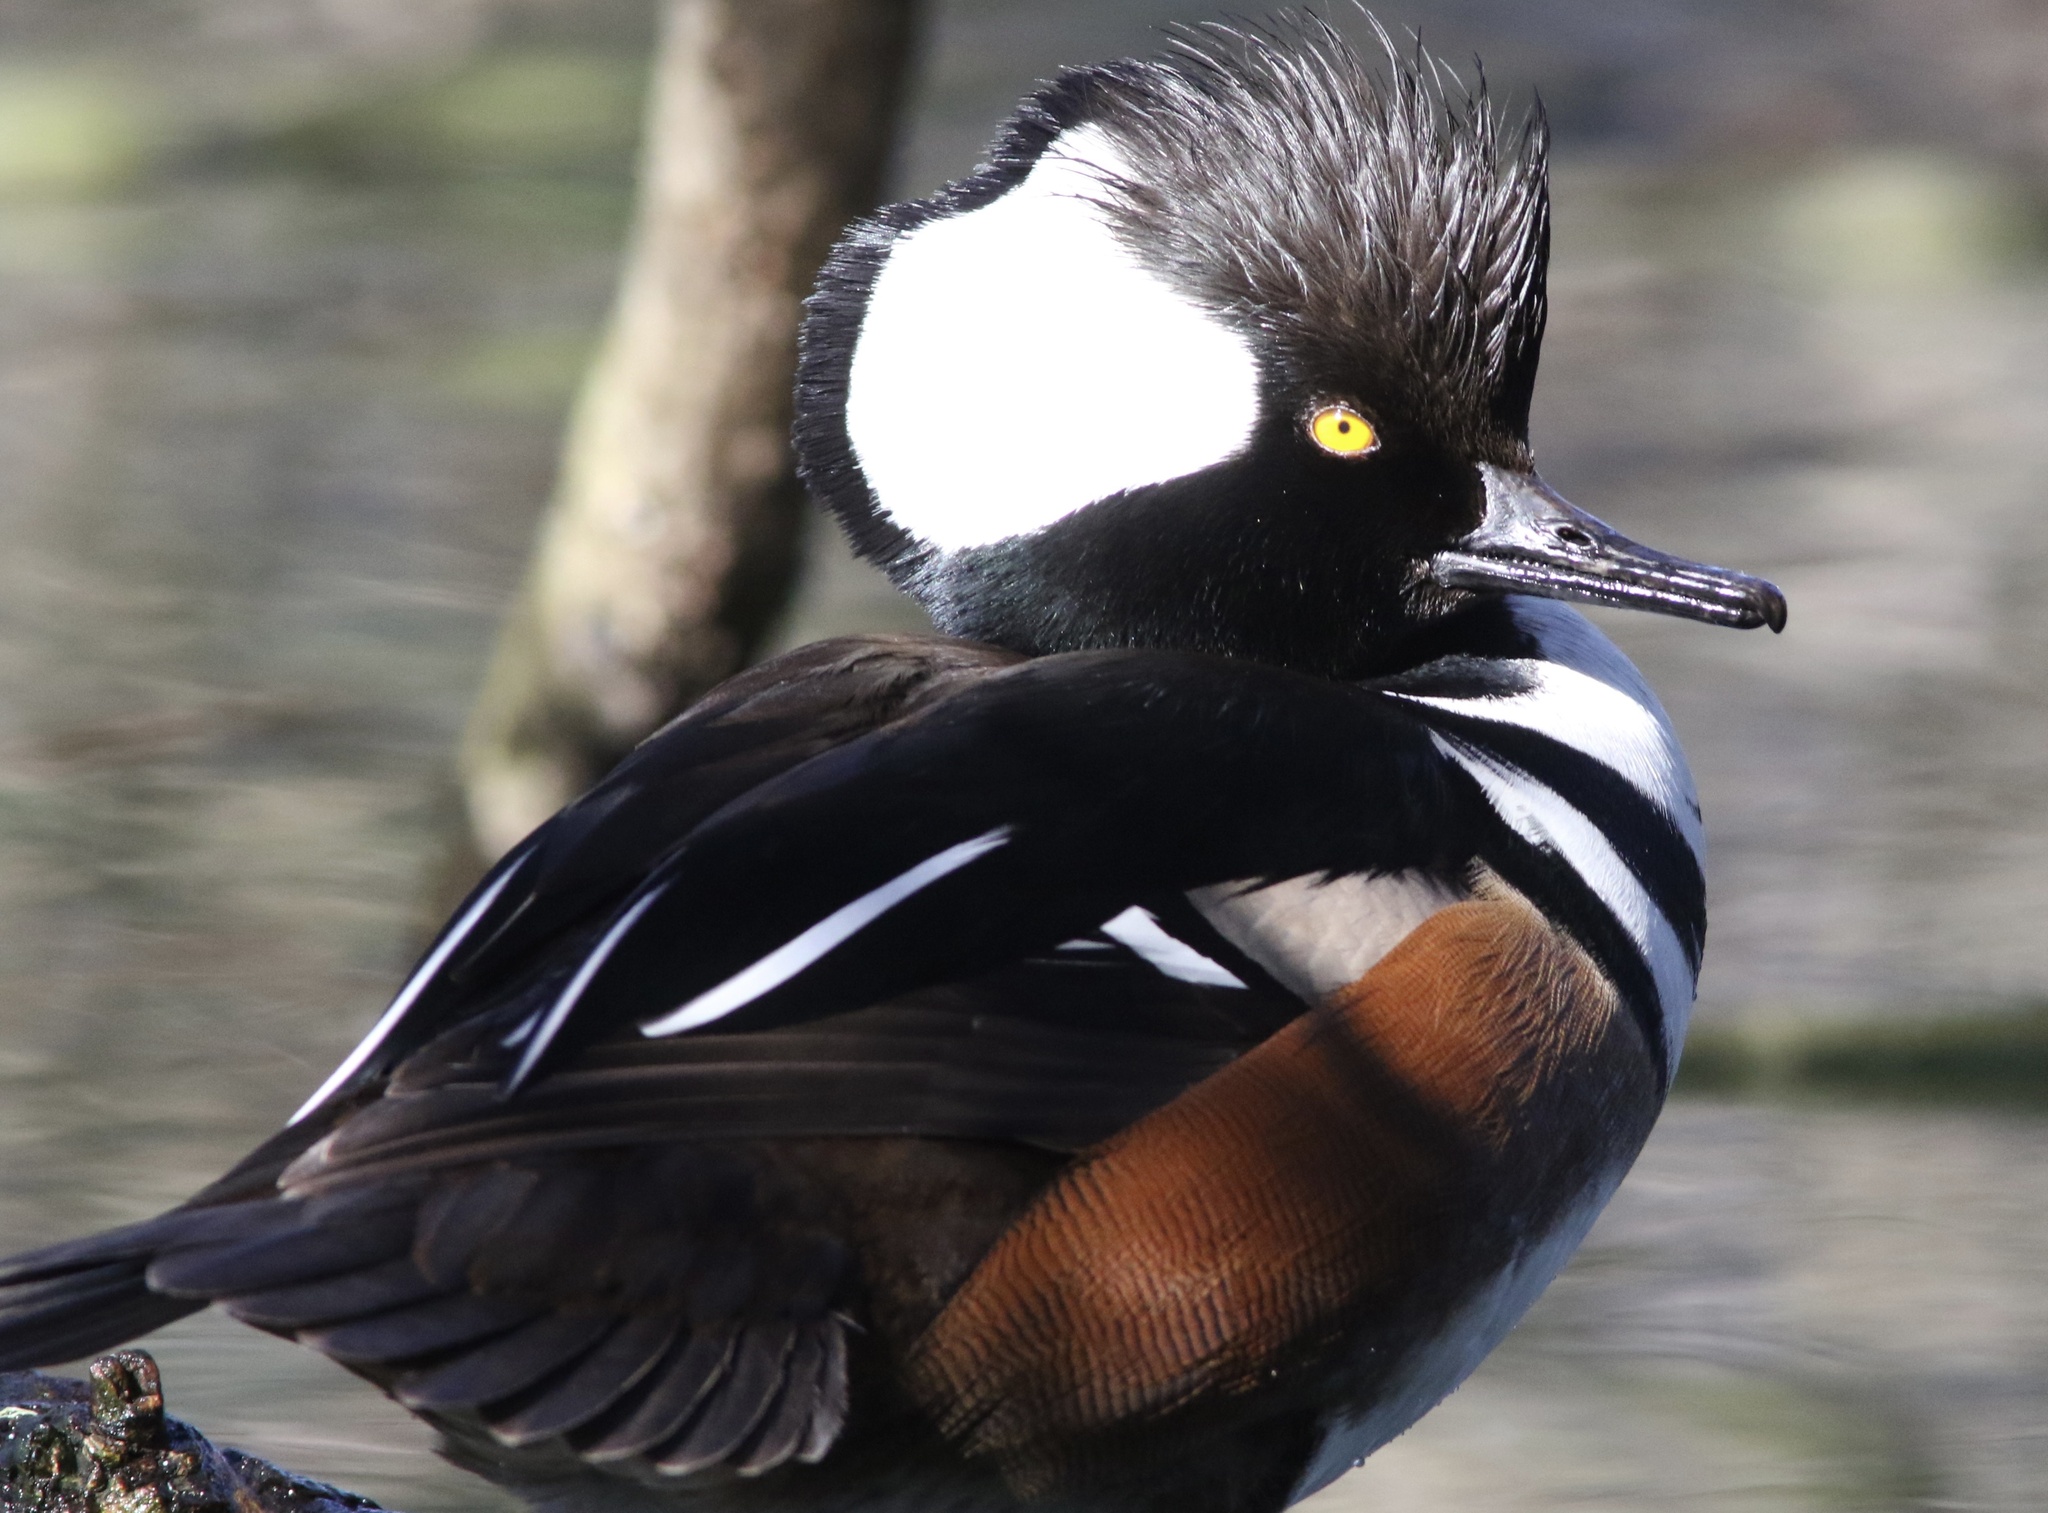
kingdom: Animalia
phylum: Chordata
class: Aves
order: Anseriformes
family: Anatidae
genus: Lophodytes
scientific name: Lophodytes cucullatus
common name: Hooded merganser
